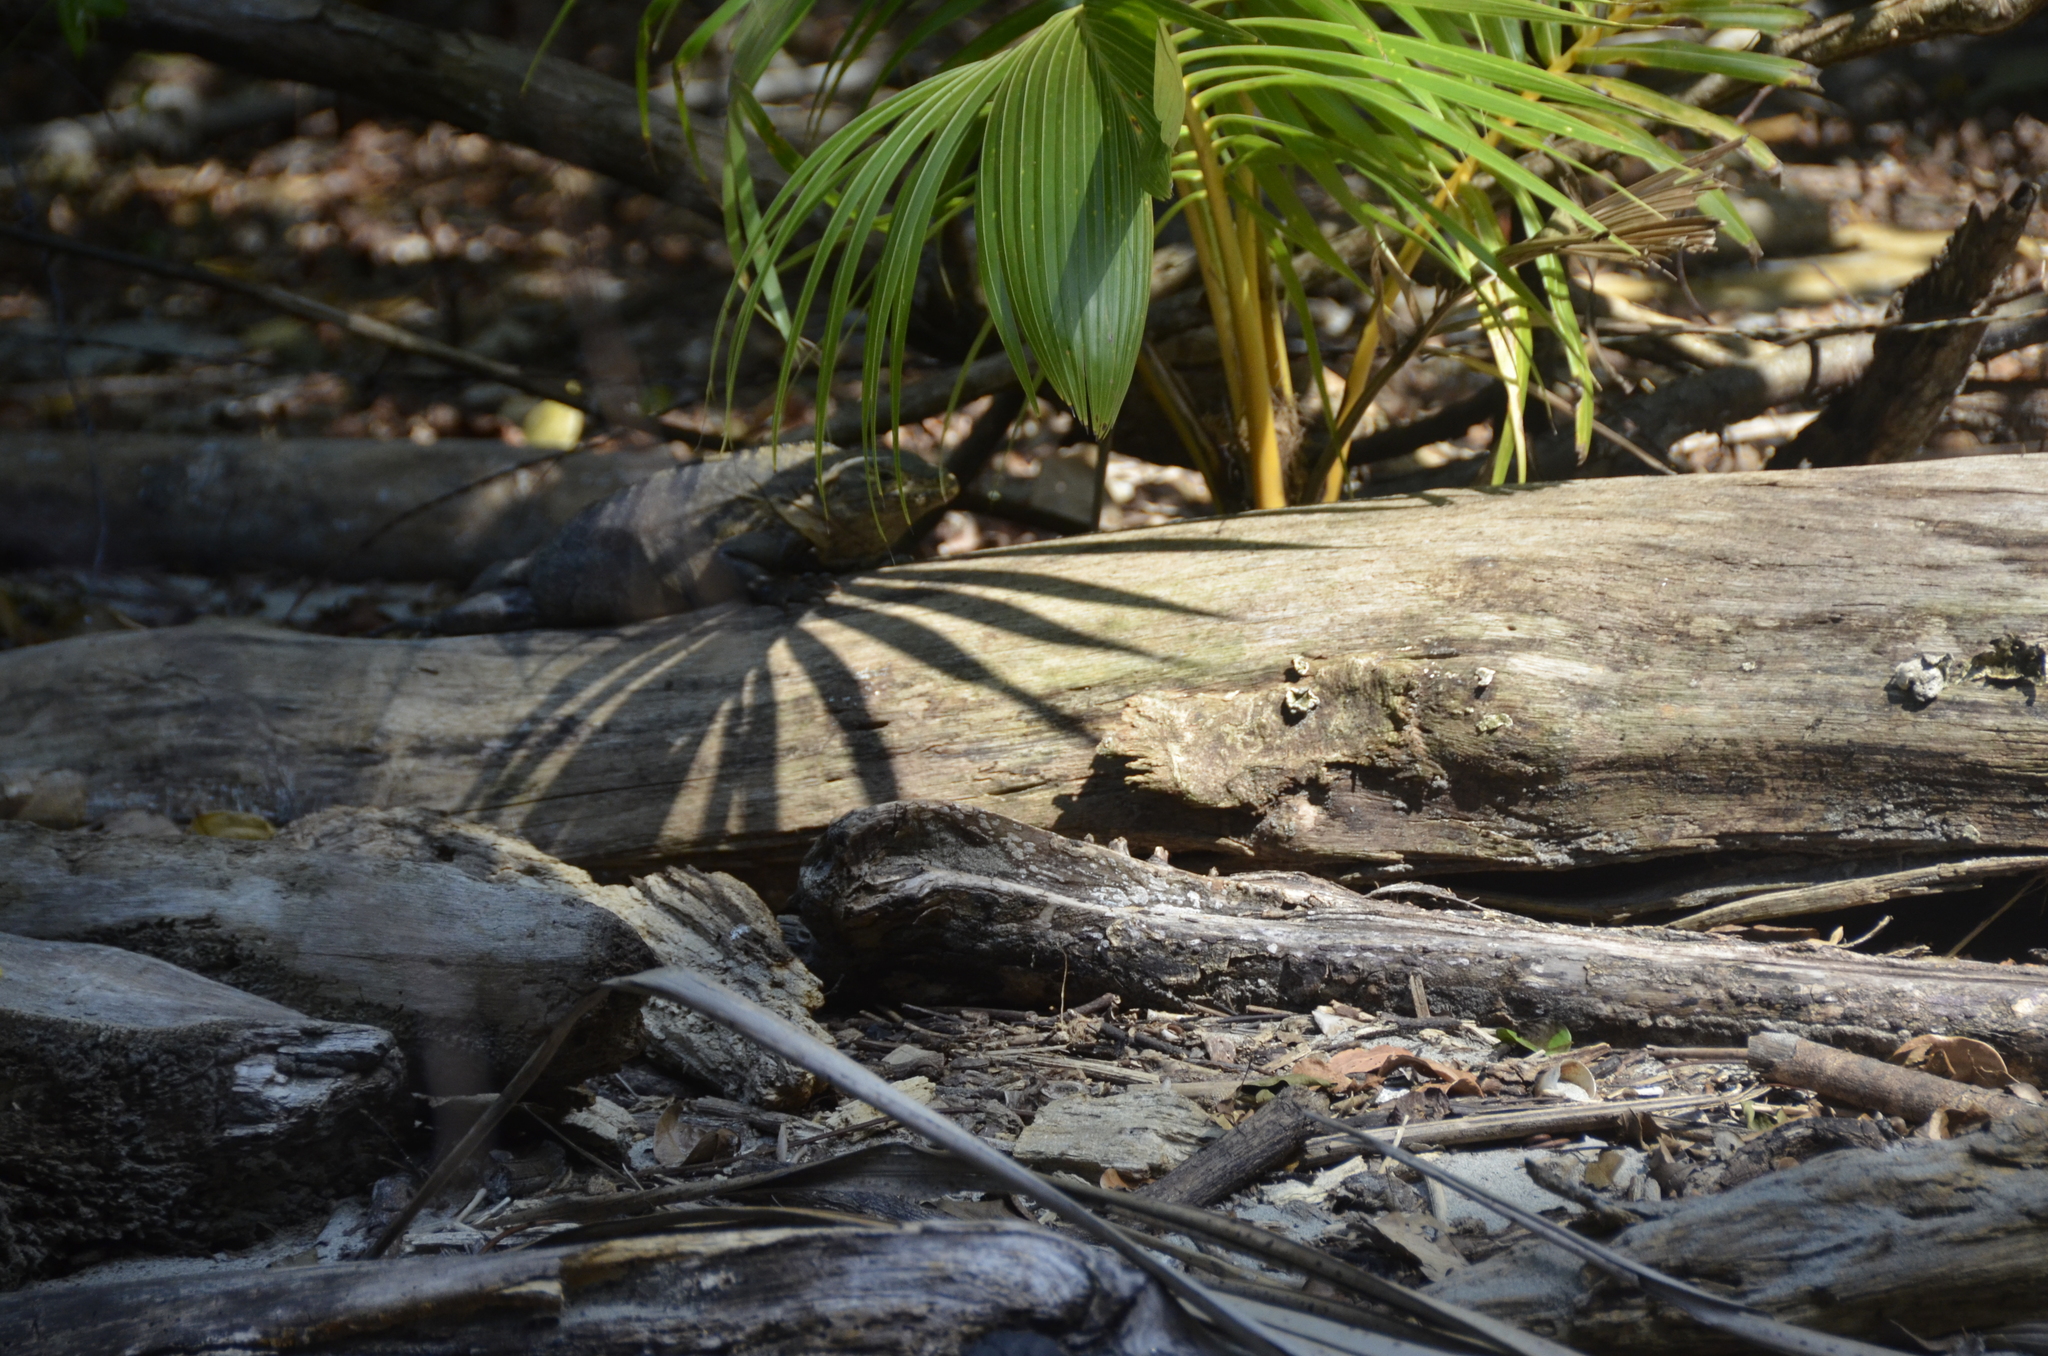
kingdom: Animalia
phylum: Chordata
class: Squamata
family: Iguanidae
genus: Ctenosaura
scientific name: Ctenosaura similis
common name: Black spiny-tailed iguana
